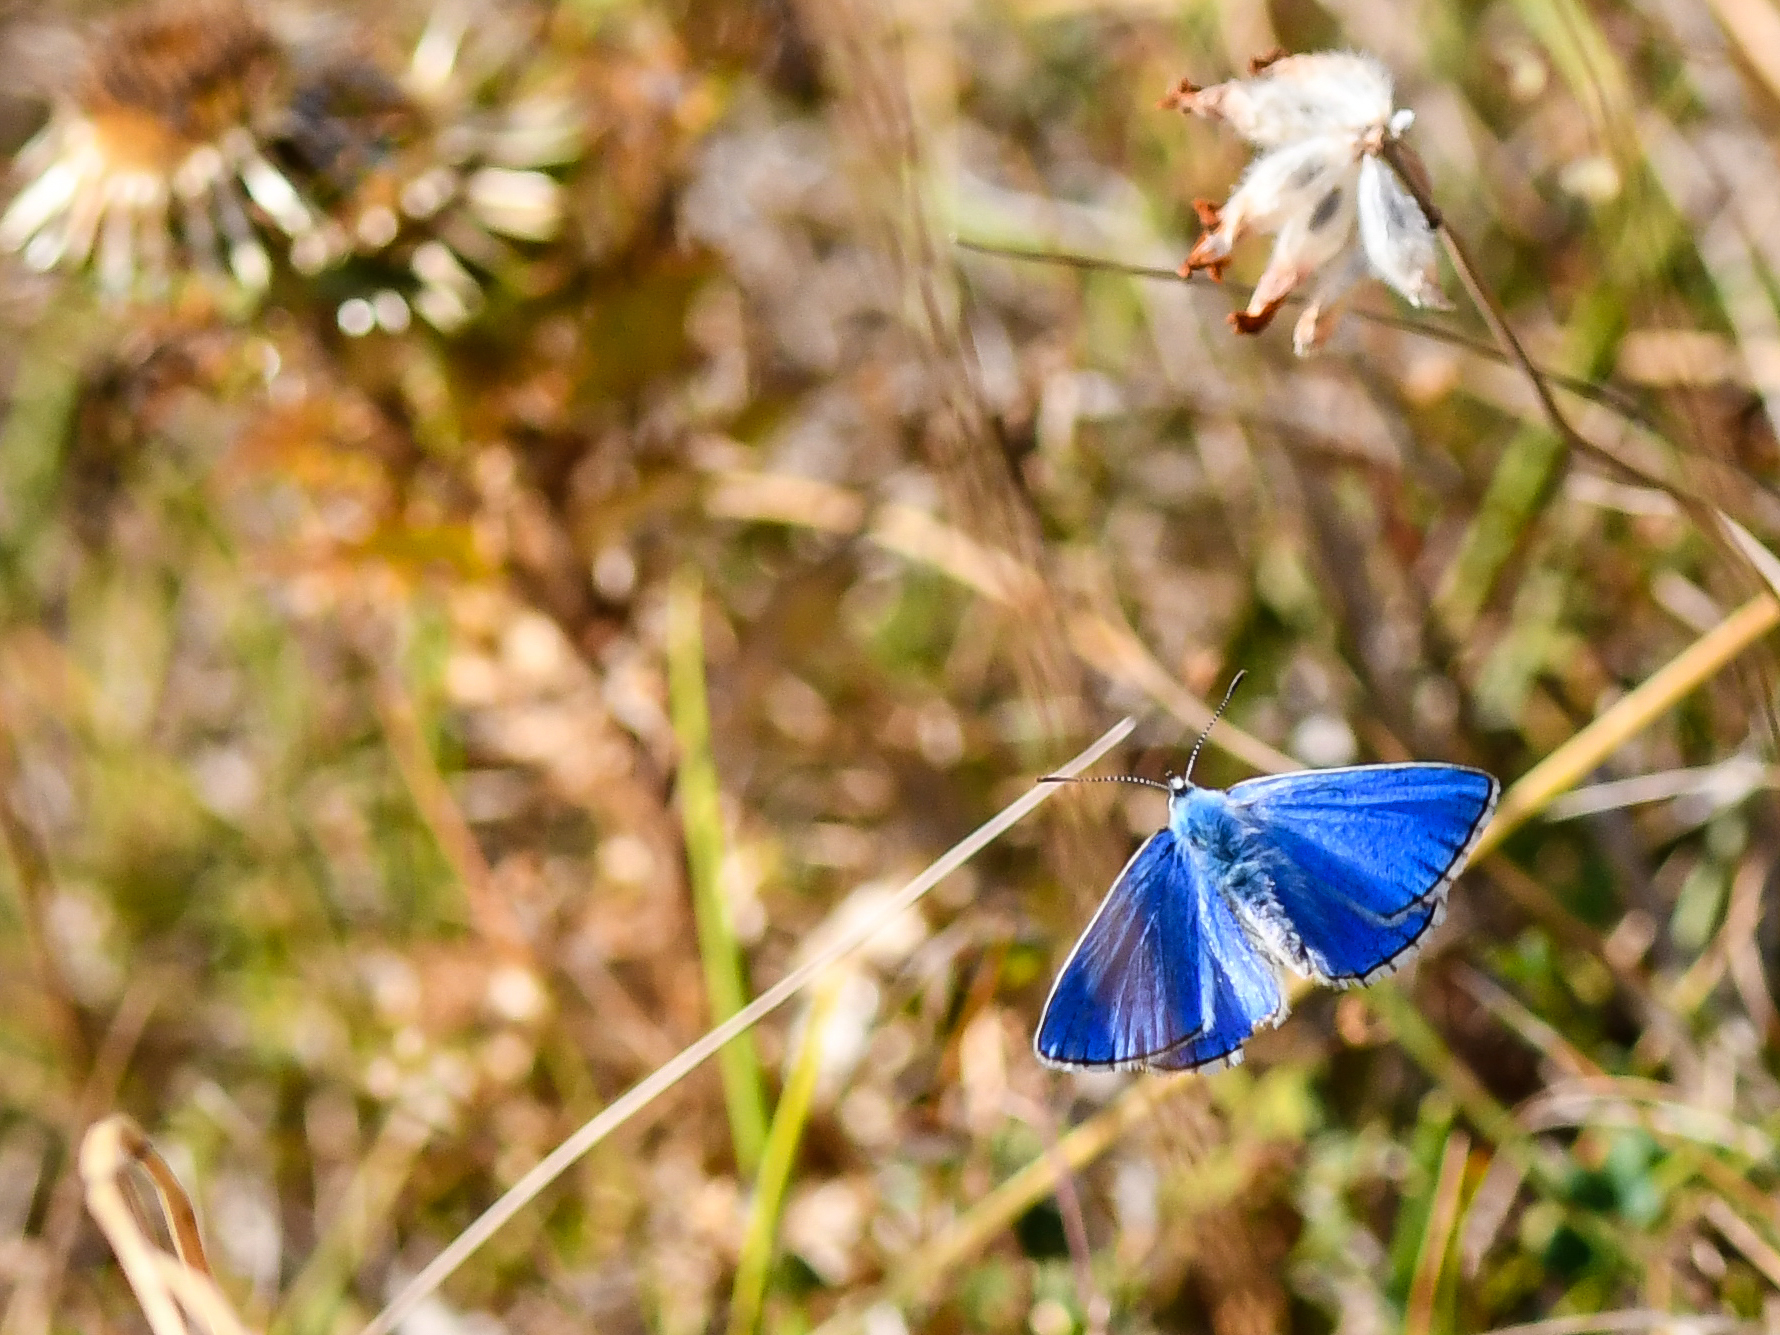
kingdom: Animalia
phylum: Arthropoda
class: Insecta
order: Lepidoptera
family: Lycaenidae
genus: Lysandra
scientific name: Lysandra bellargus
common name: Adonis blue
